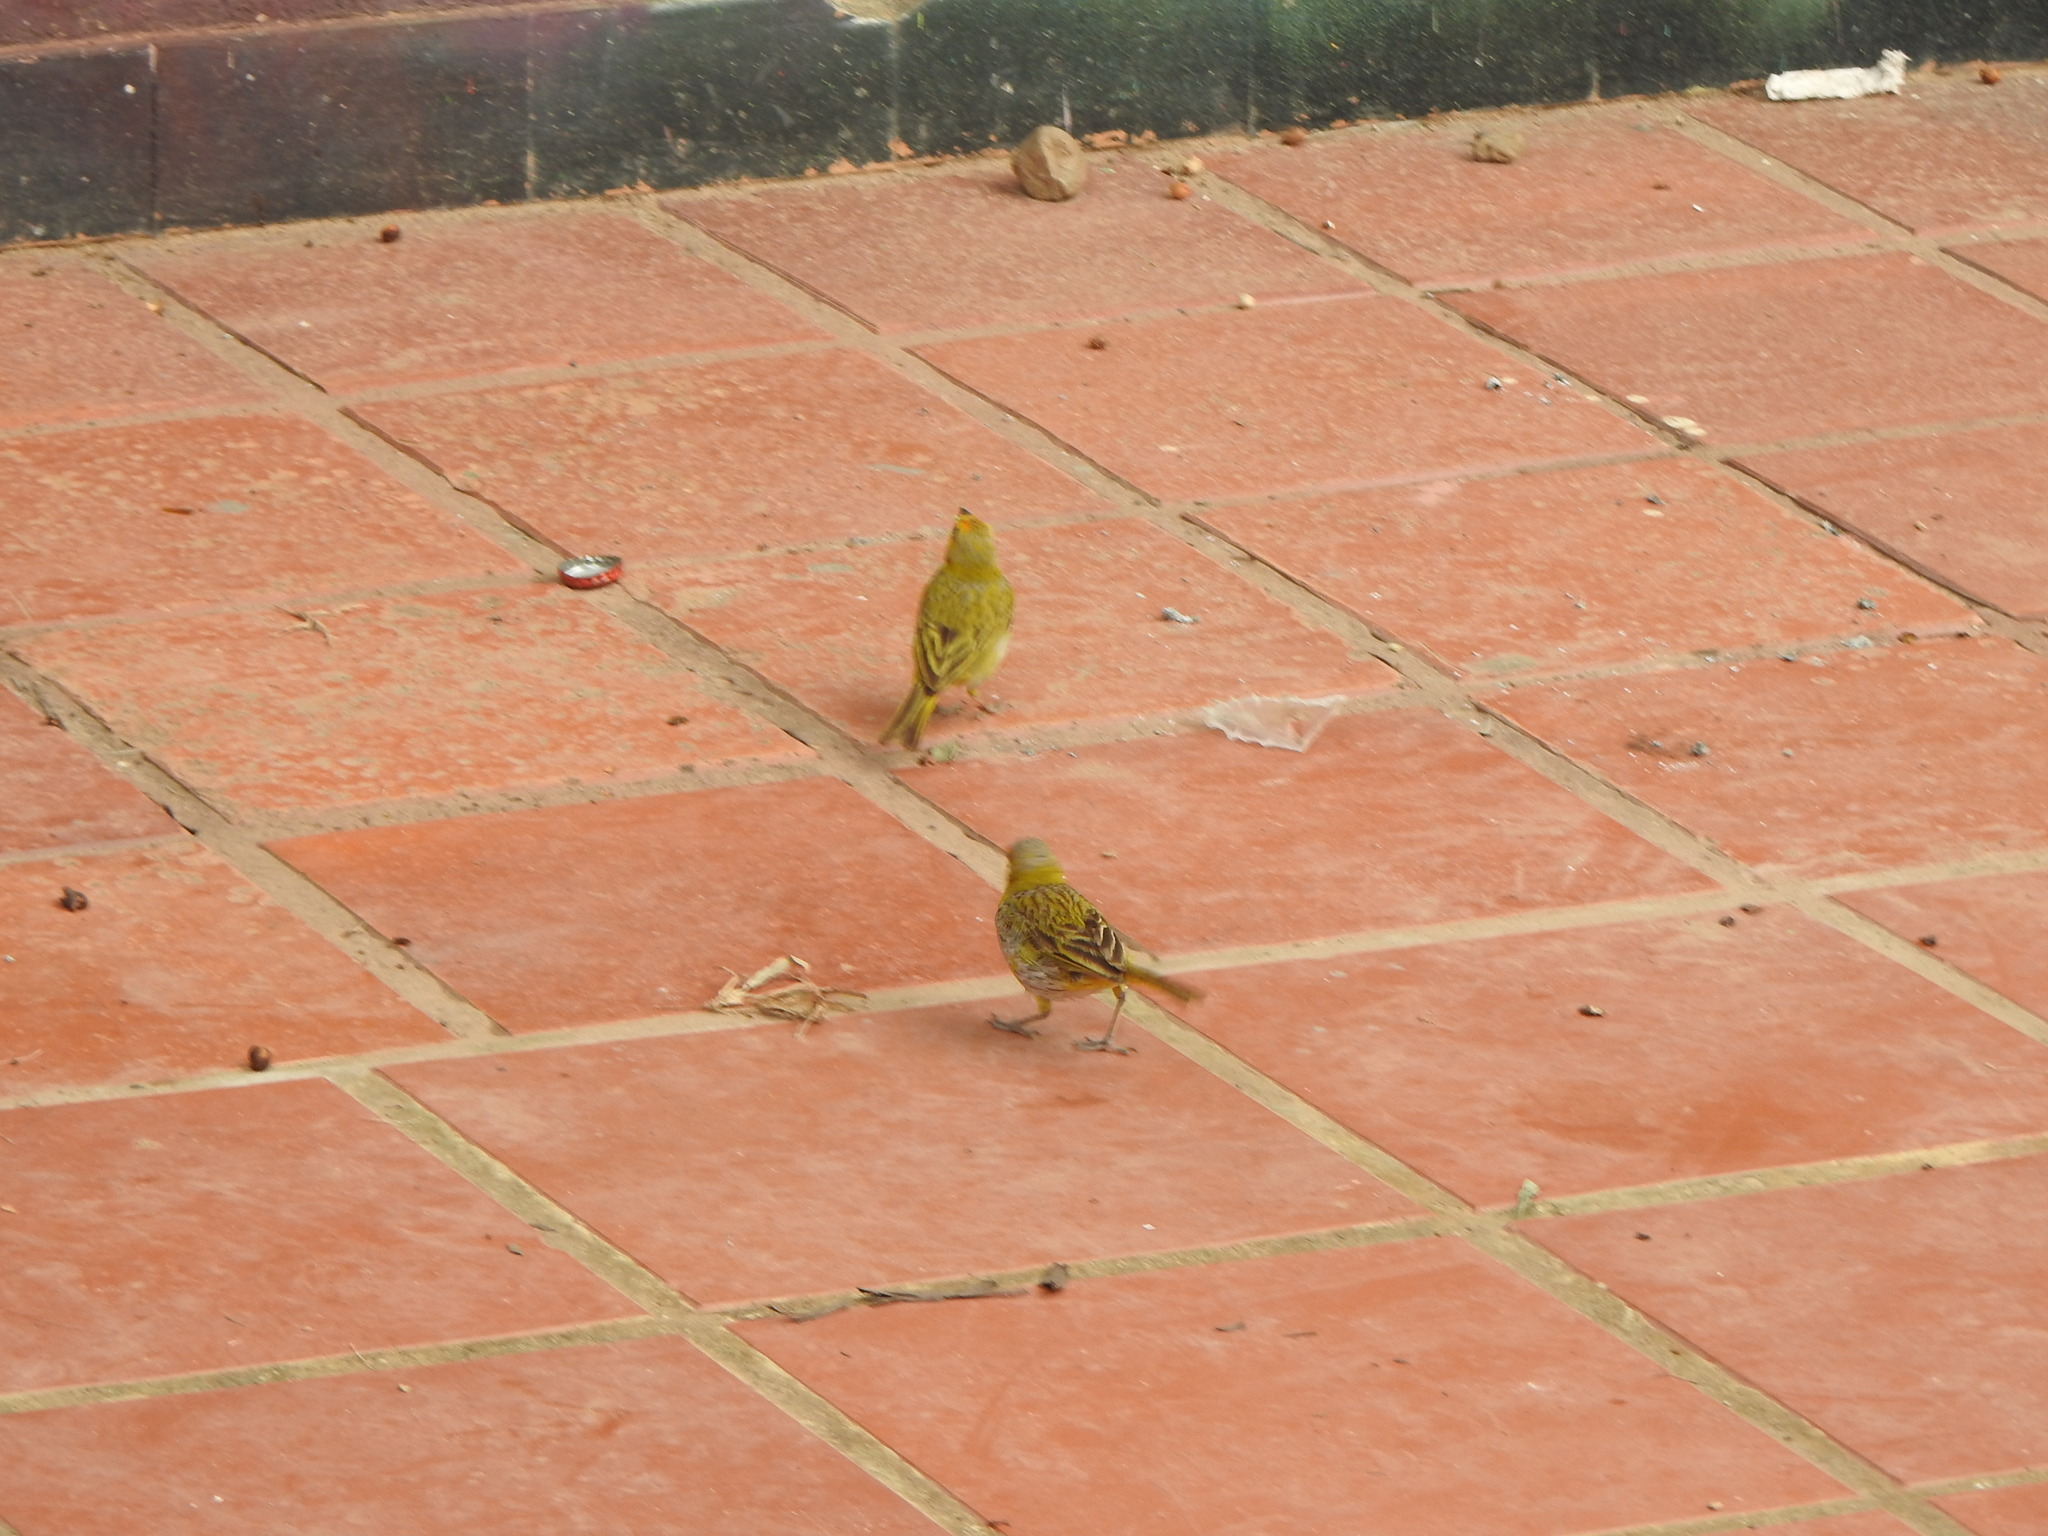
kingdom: Animalia
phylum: Chordata
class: Aves
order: Passeriformes
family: Thraupidae
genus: Sicalis
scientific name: Sicalis flaveola
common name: Saffron finch
